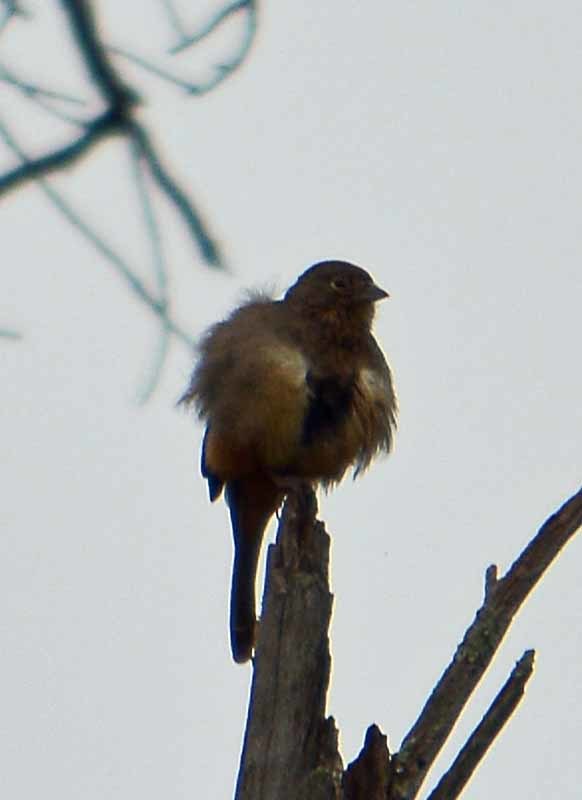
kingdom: Animalia
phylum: Chordata
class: Aves
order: Passeriformes
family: Passerellidae
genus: Melozone
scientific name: Melozone fusca
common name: Canyon towhee
